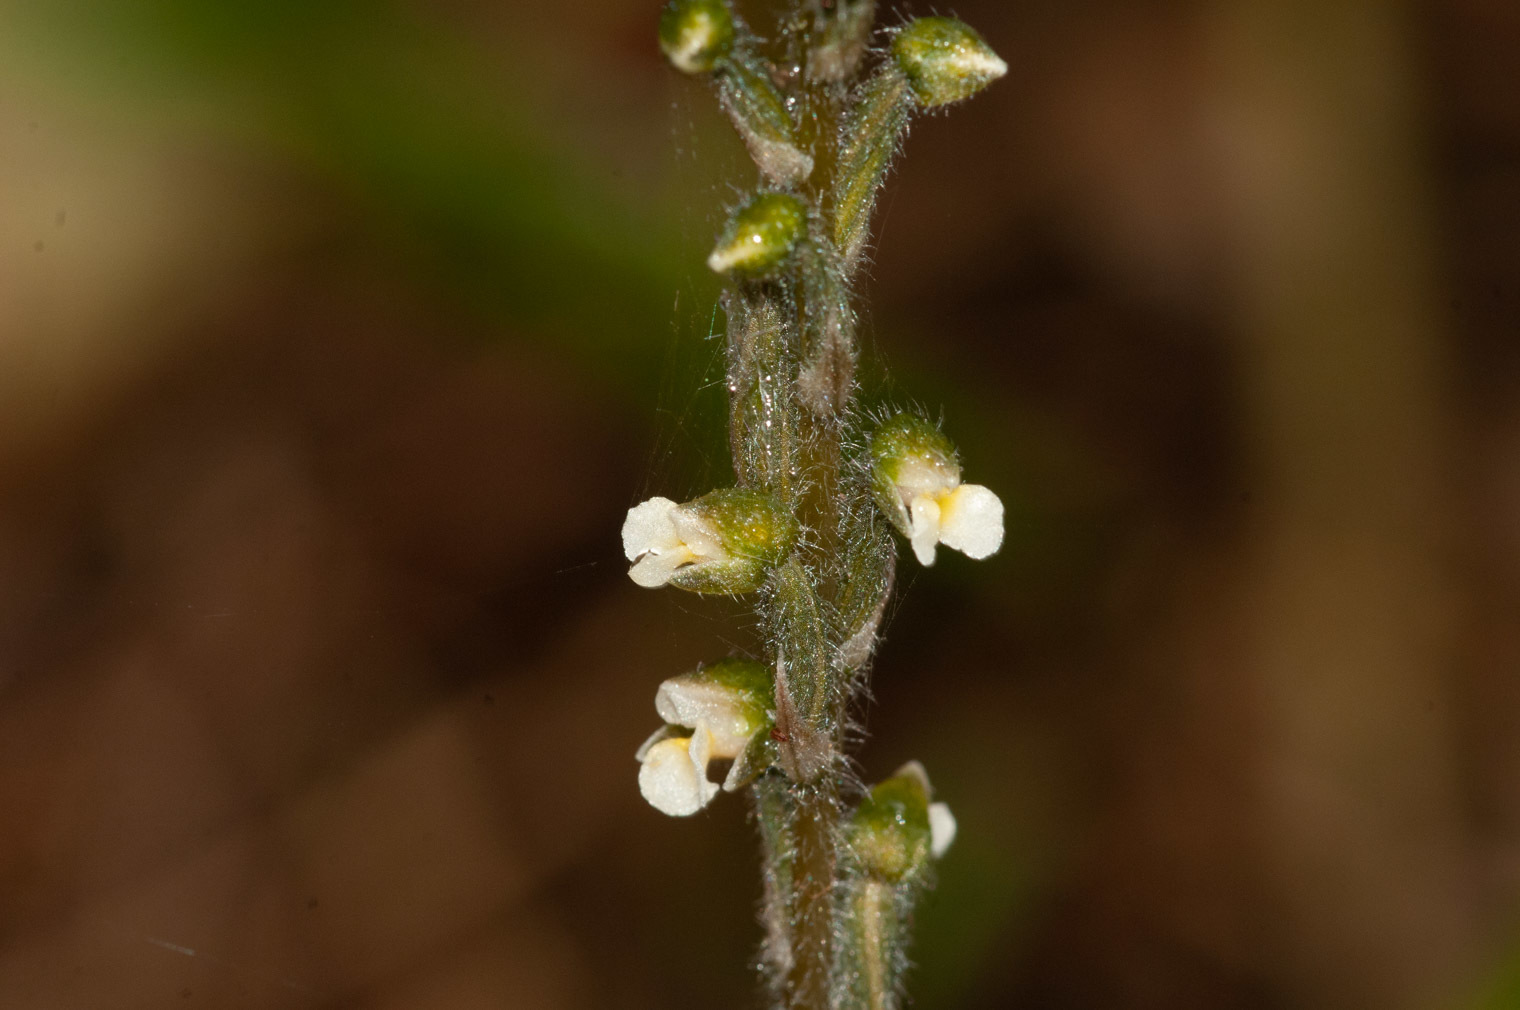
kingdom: Plantae
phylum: Tracheophyta
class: Liliopsida
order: Asparagales
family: Orchidaceae
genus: Zeuxine
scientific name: Zeuxine oblonga
